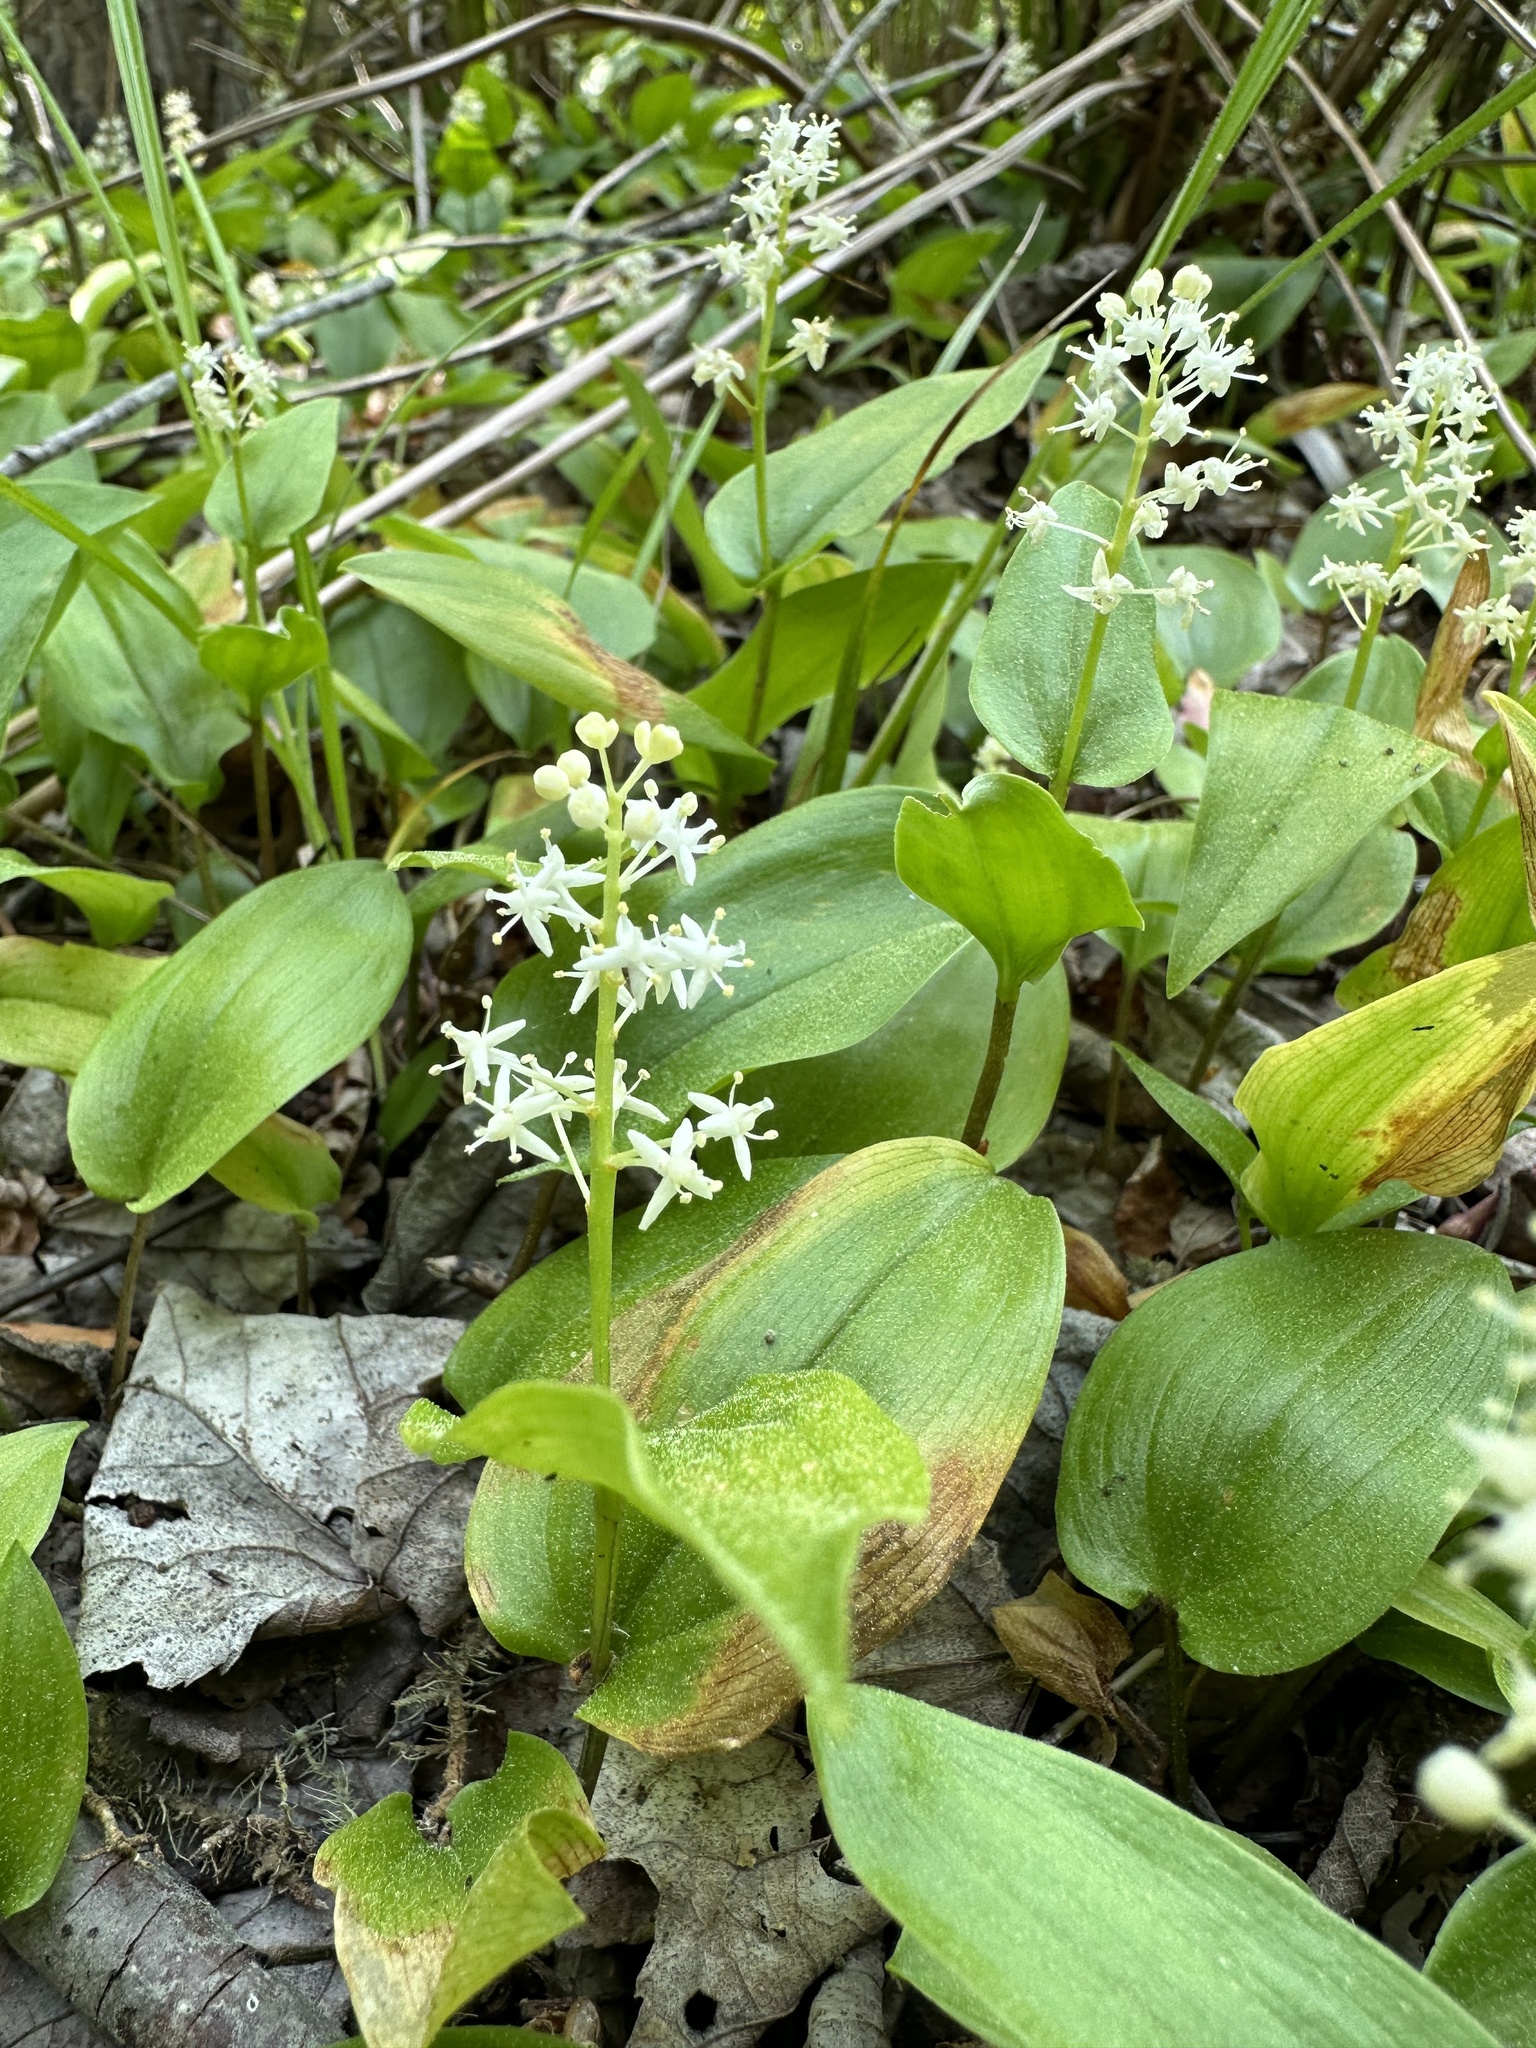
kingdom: Plantae
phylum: Tracheophyta
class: Liliopsida
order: Asparagales
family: Asparagaceae
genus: Maianthemum
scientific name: Maianthemum canadense
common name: False lily-of-the-valley
